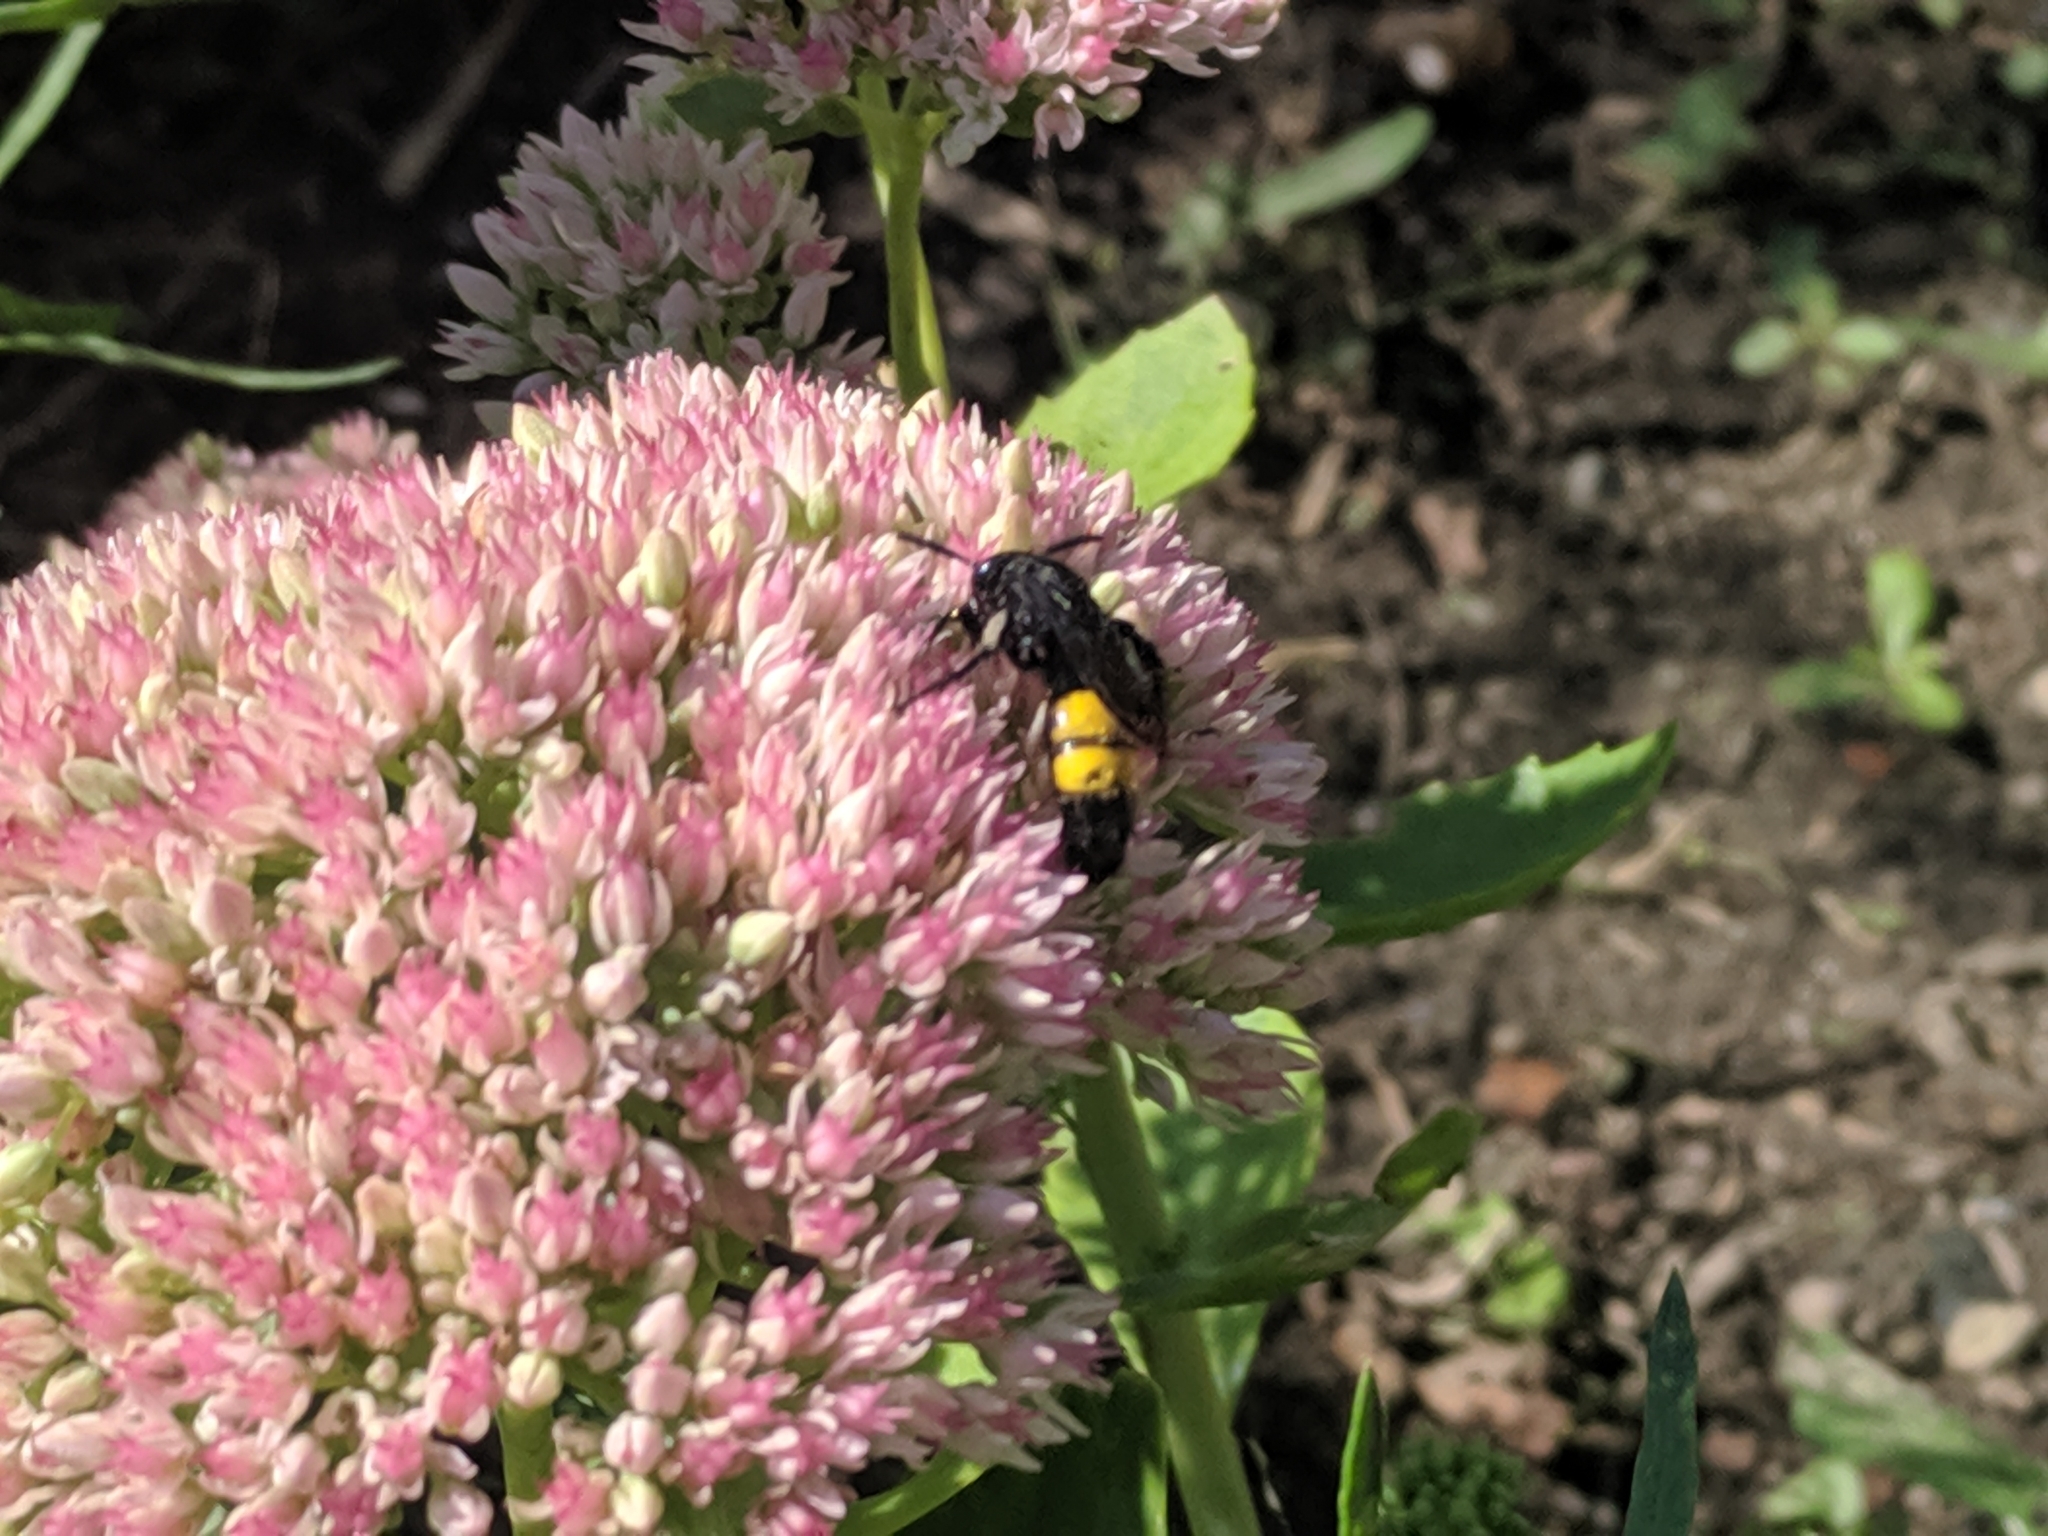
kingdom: Animalia
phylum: Arthropoda
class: Insecta
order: Hymenoptera
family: Scoliidae
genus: Scolia
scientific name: Scolia hirta
